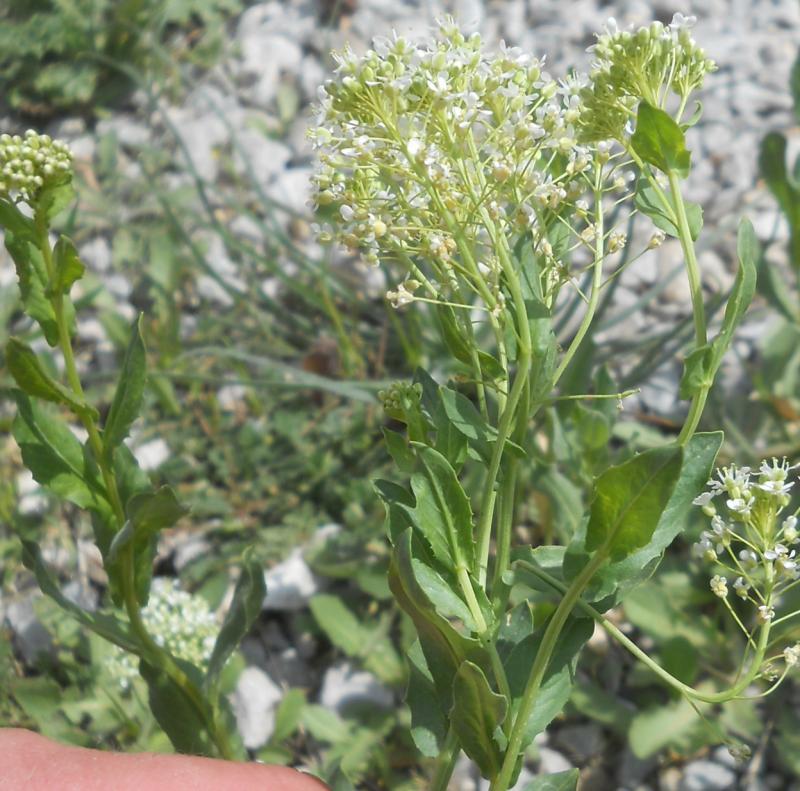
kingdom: Plantae
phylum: Tracheophyta
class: Magnoliopsida
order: Brassicales
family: Brassicaceae
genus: Lepidium
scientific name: Lepidium draba
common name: Hoary cress
